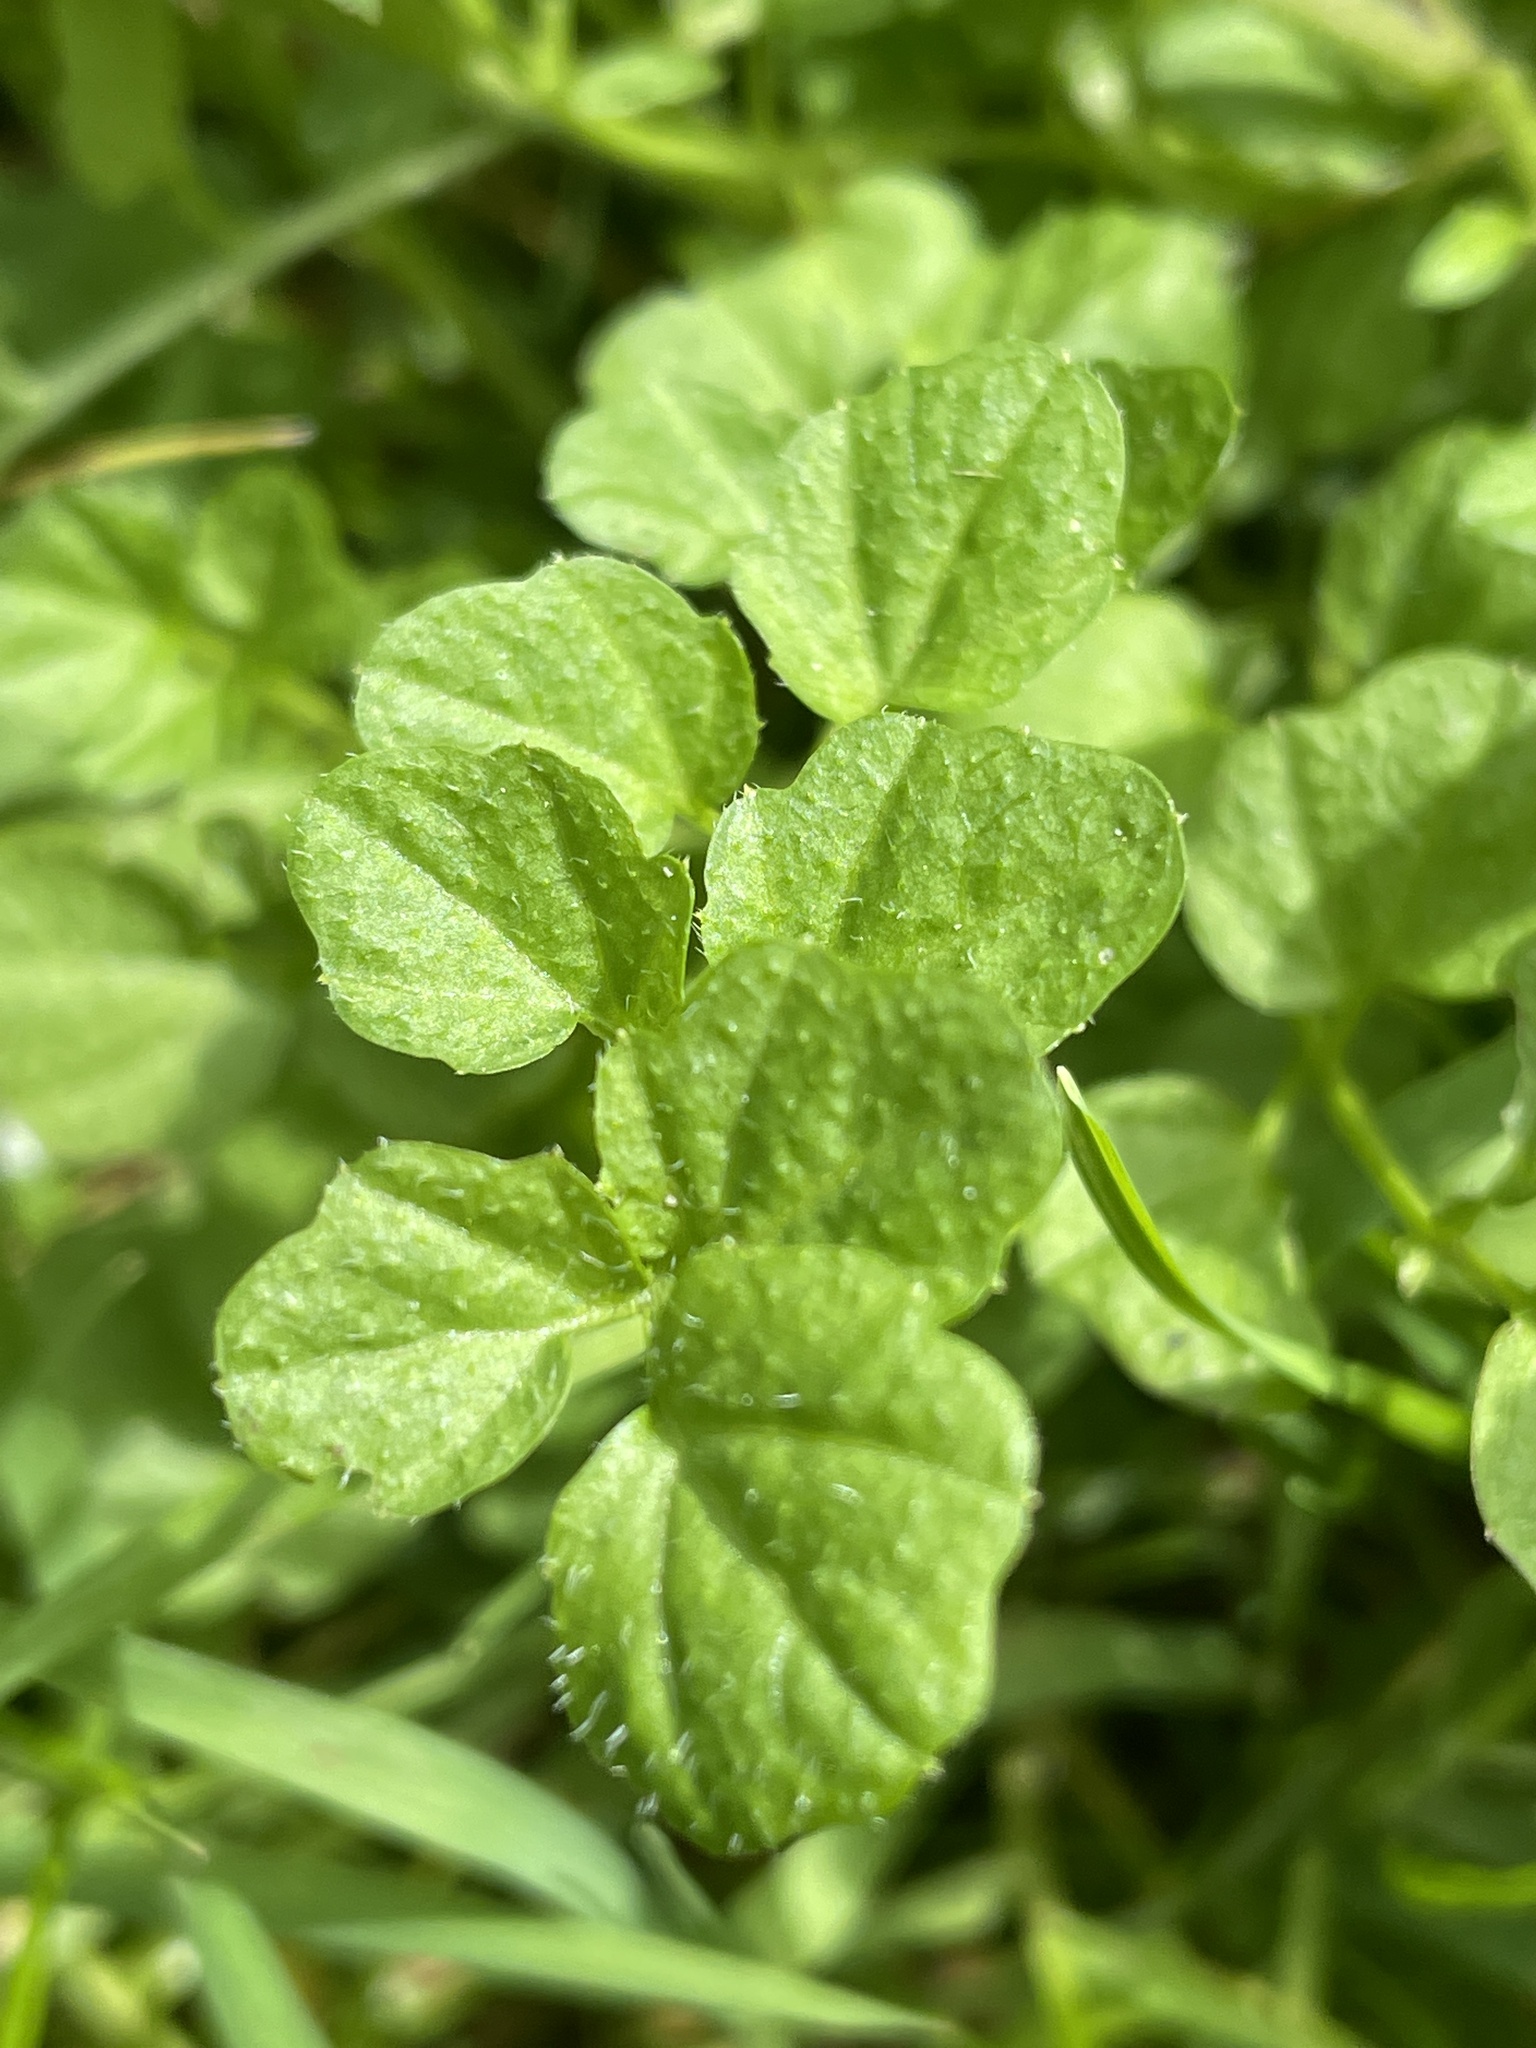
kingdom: Plantae
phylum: Tracheophyta
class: Magnoliopsida
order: Brassicales
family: Brassicaceae
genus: Cardamine
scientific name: Cardamine hirsuta
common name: Hairy bittercress
